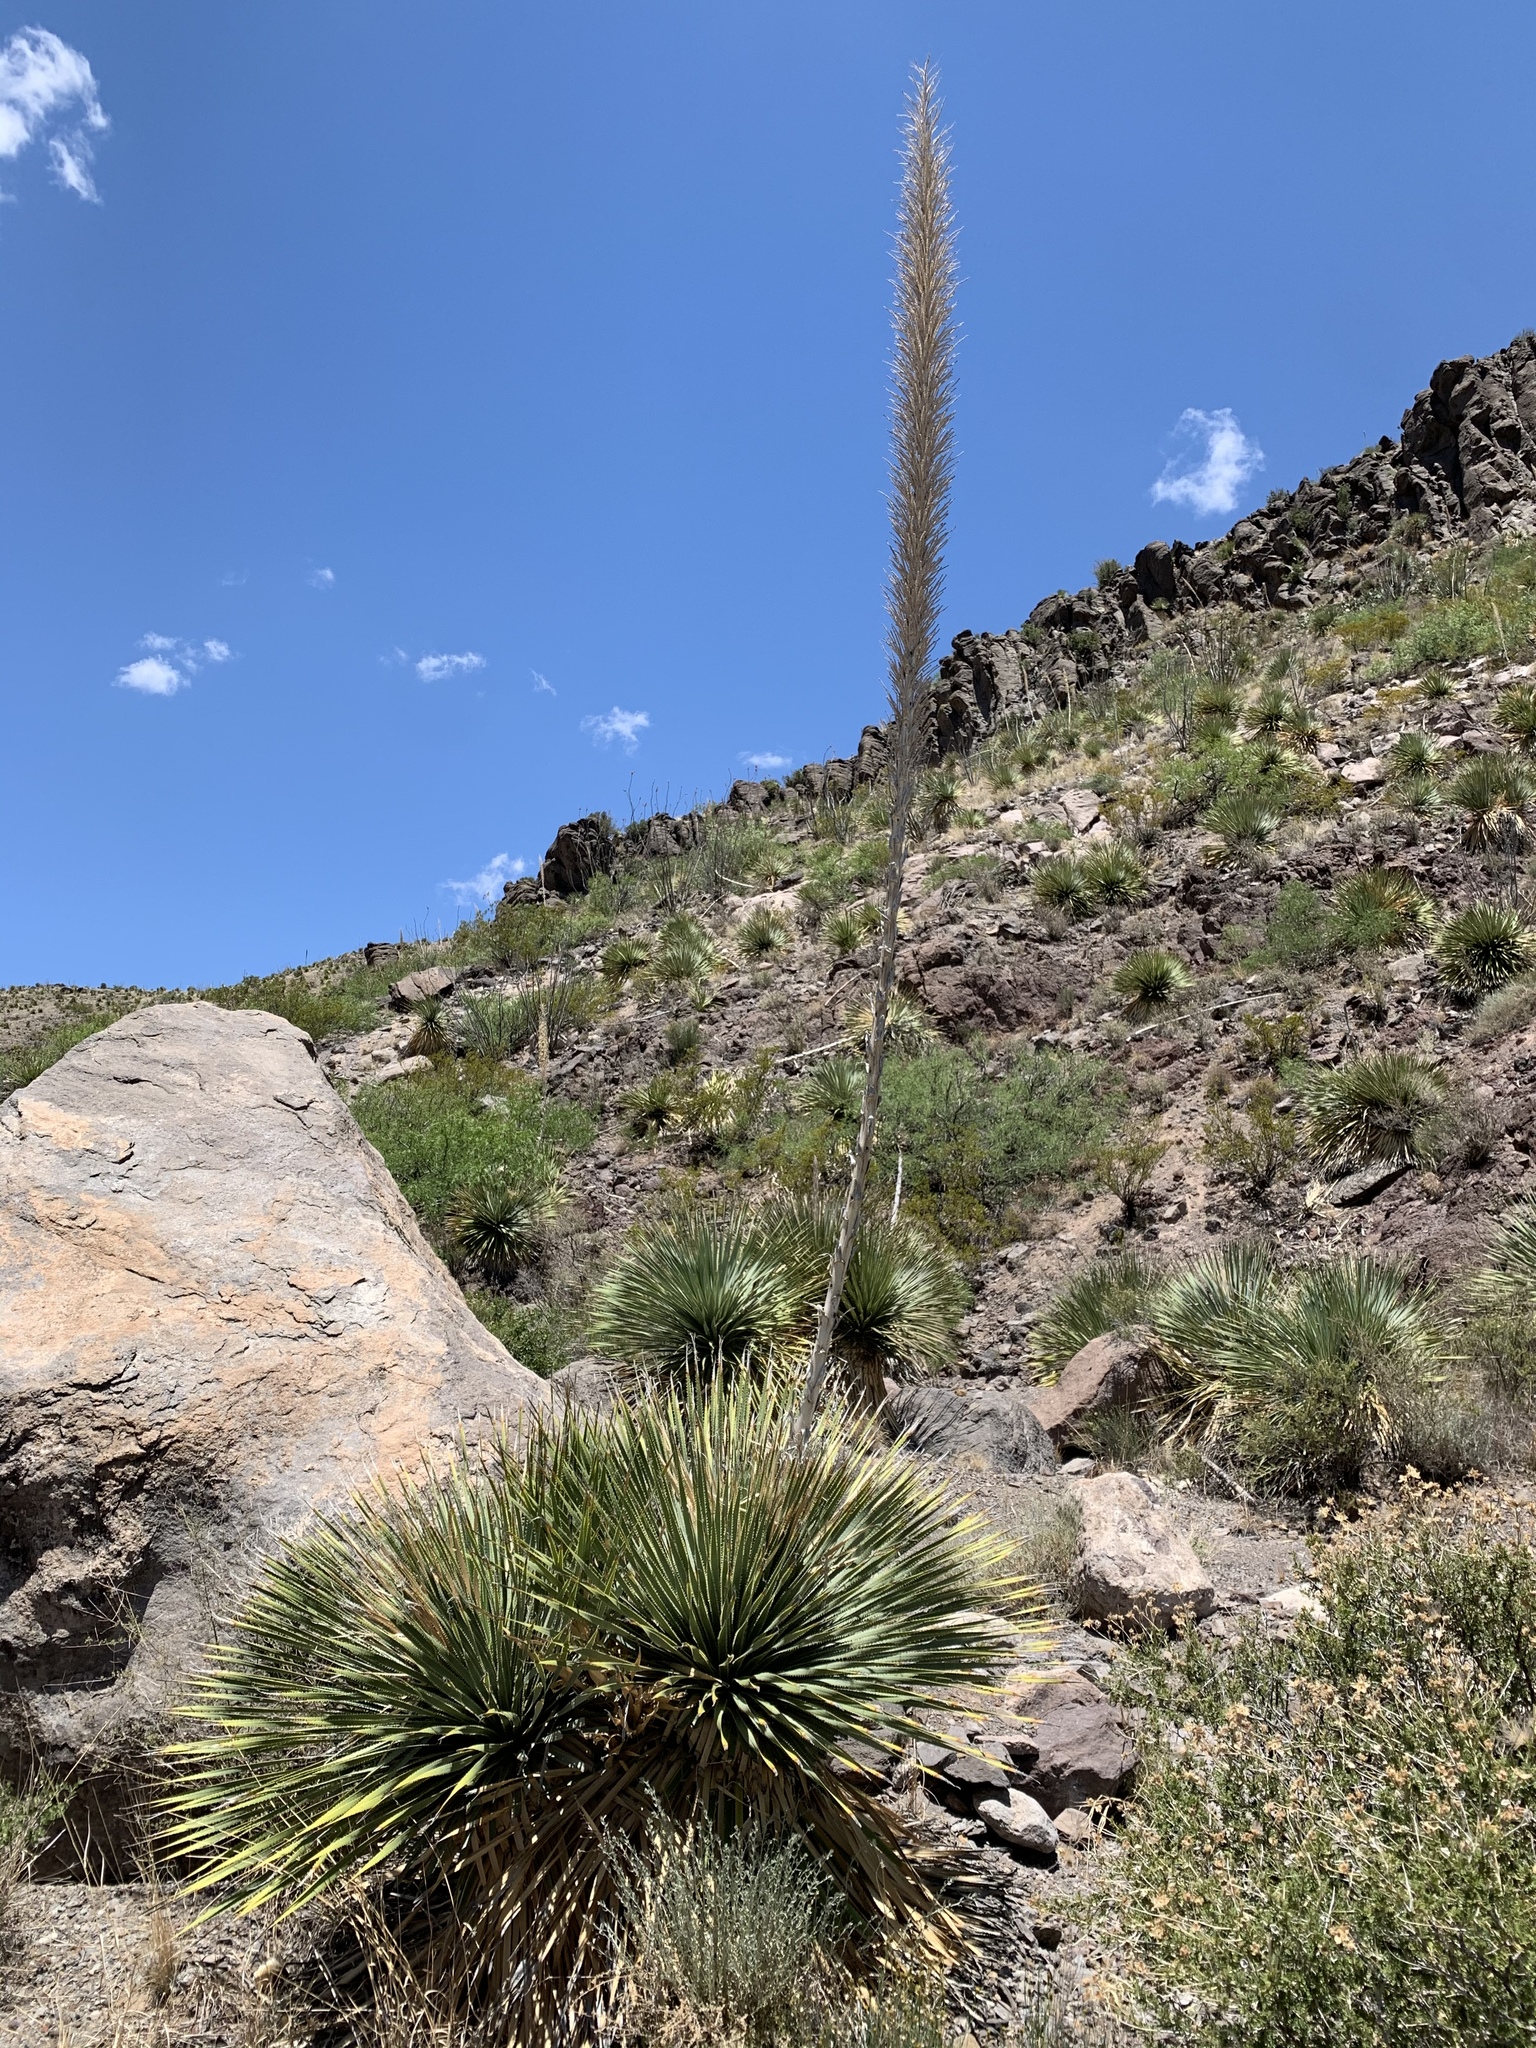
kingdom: Plantae
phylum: Tracheophyta
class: Liliopsida
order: Asparagales
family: Asparagaceae
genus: Dasylirion
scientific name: Dasylirion wheeleri
